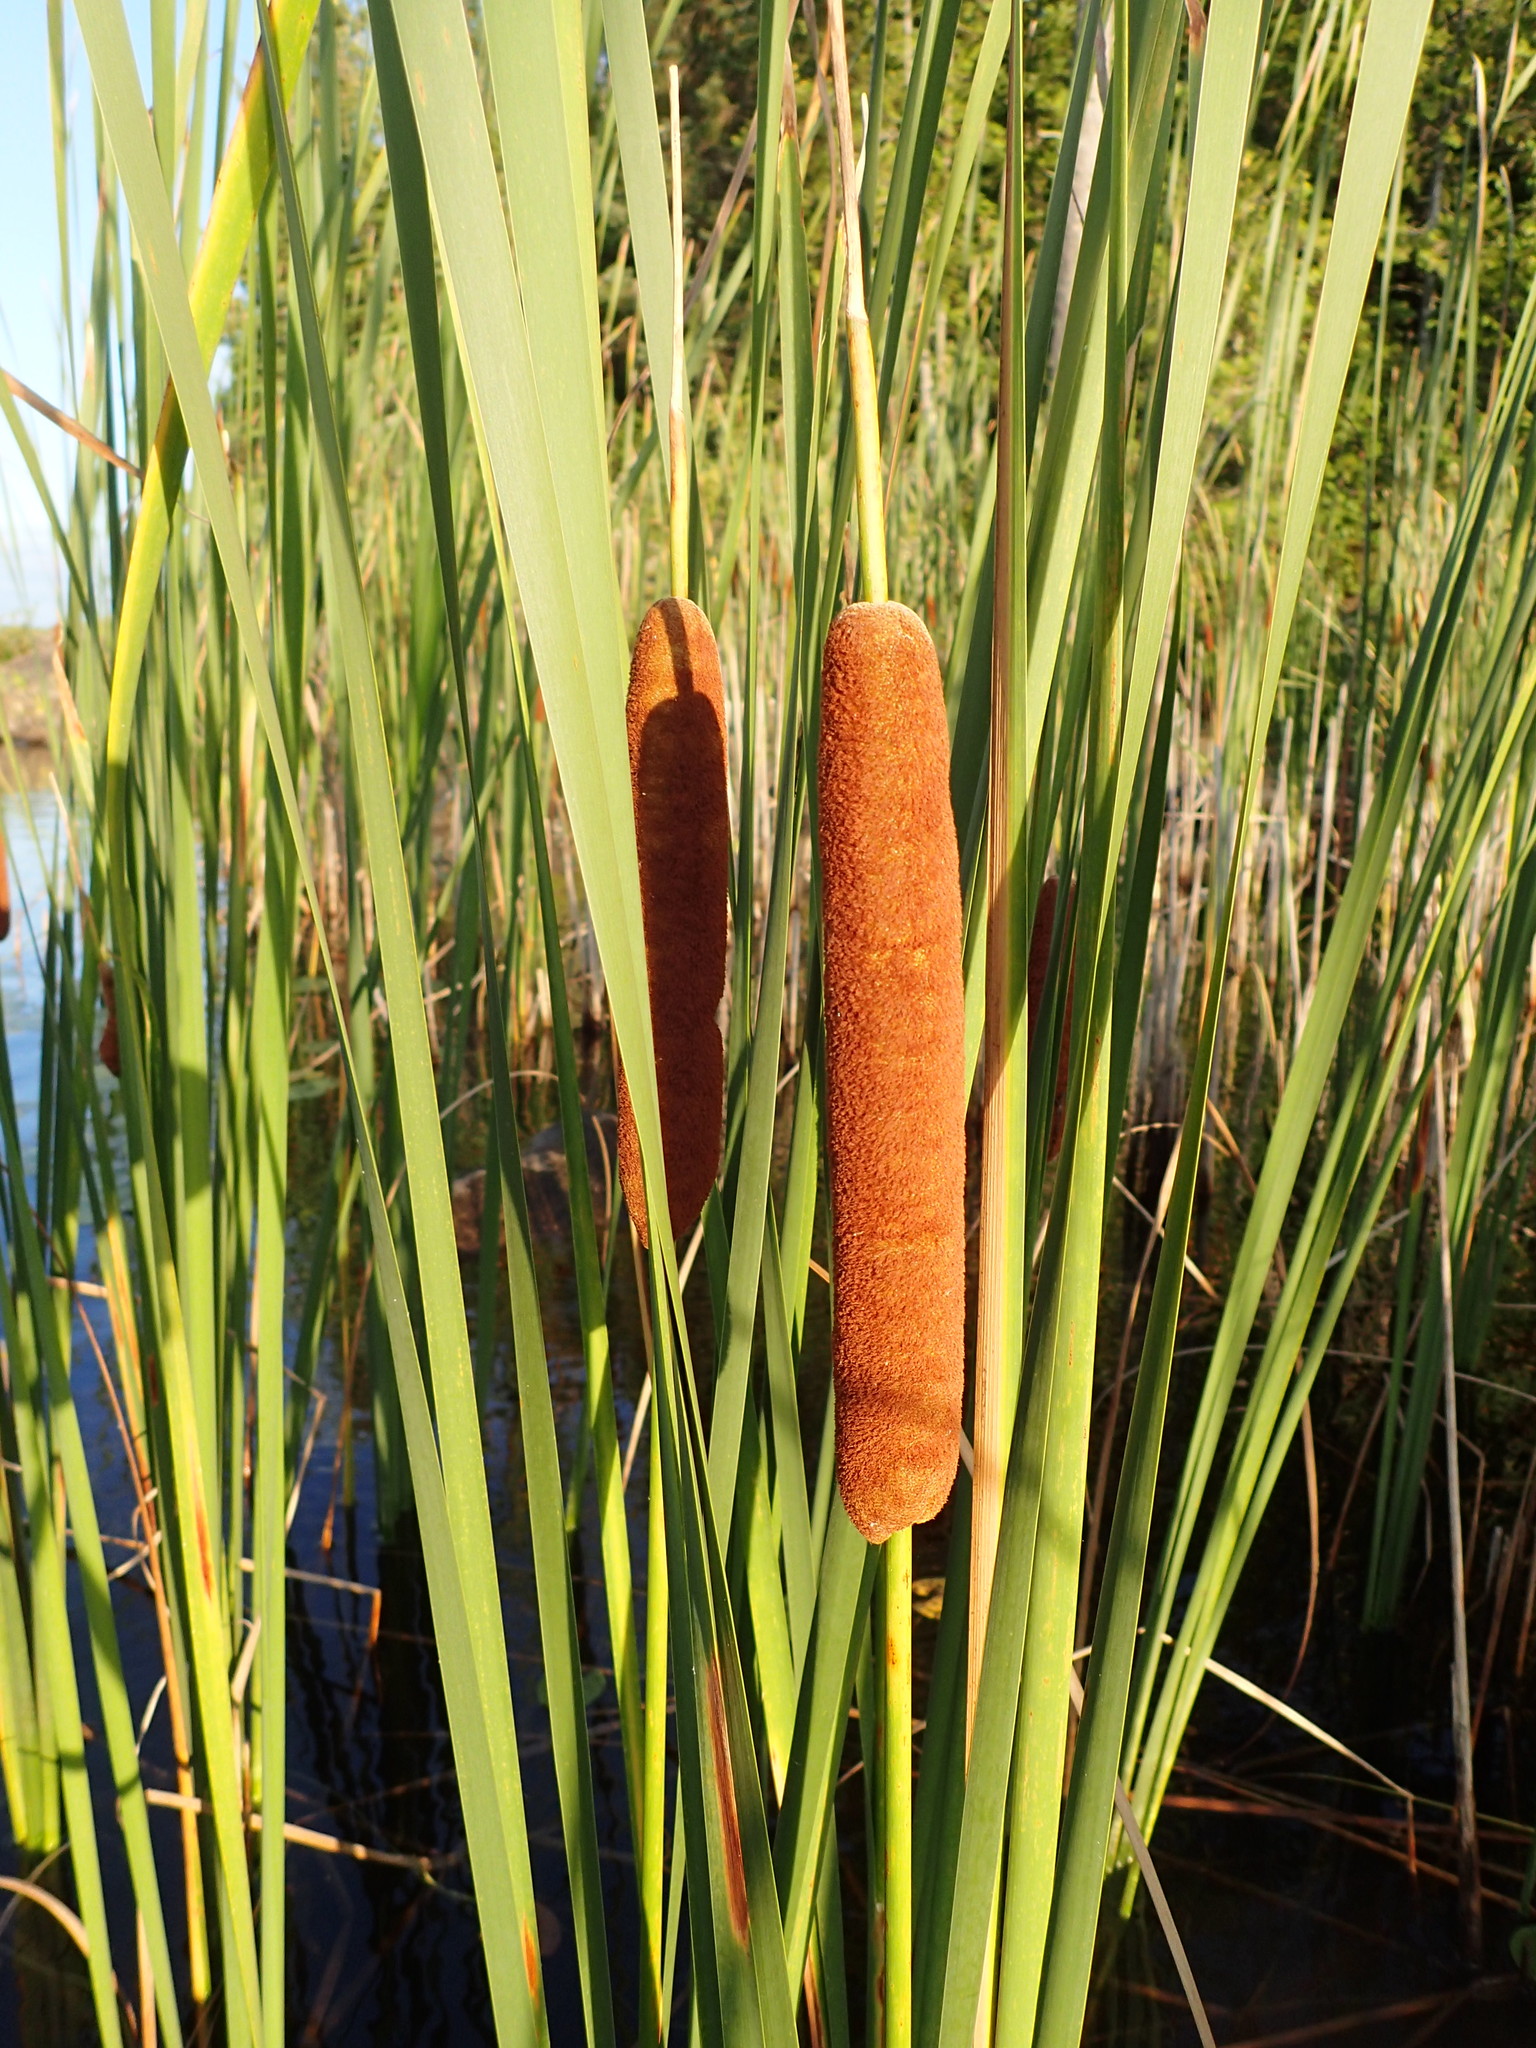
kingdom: Plantae
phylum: Tracheophyta
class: Liliopsida
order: Poales
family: Typhaceae
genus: Typha
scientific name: Typha angustifolia
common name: Lesser bulrush
